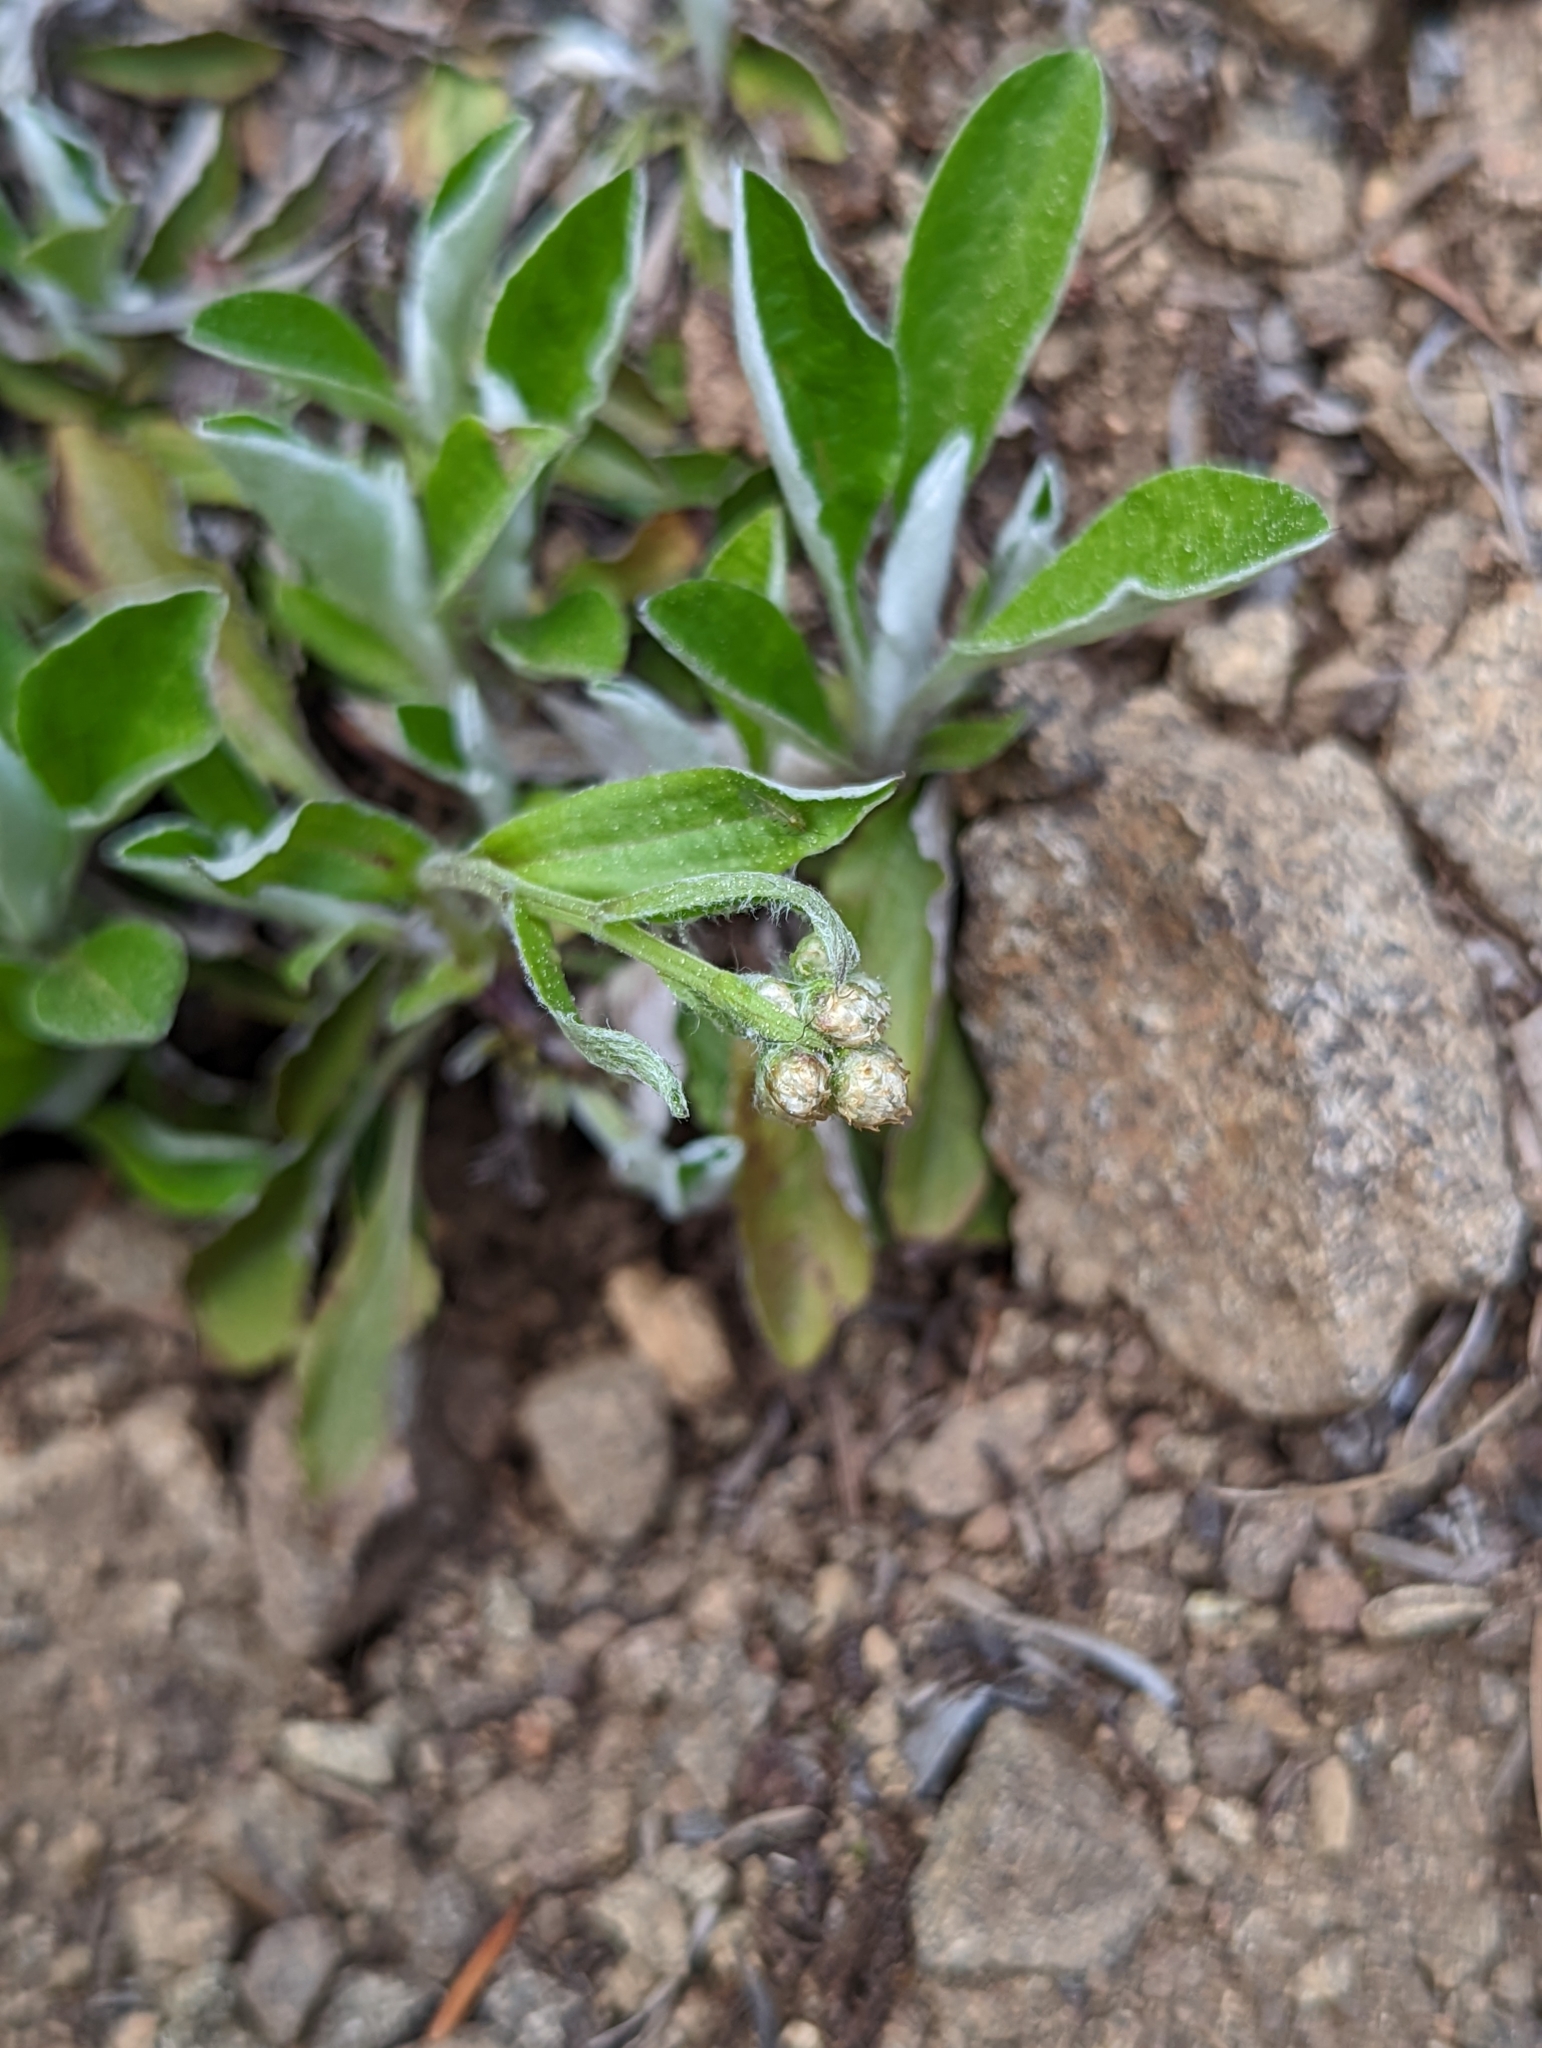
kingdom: Plantae
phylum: Tracheophyta
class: Magnoliopsida
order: Asterales
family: Asteraceae
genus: Antennaria
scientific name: Antennaria racemosa
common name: Racemose pussytoes
